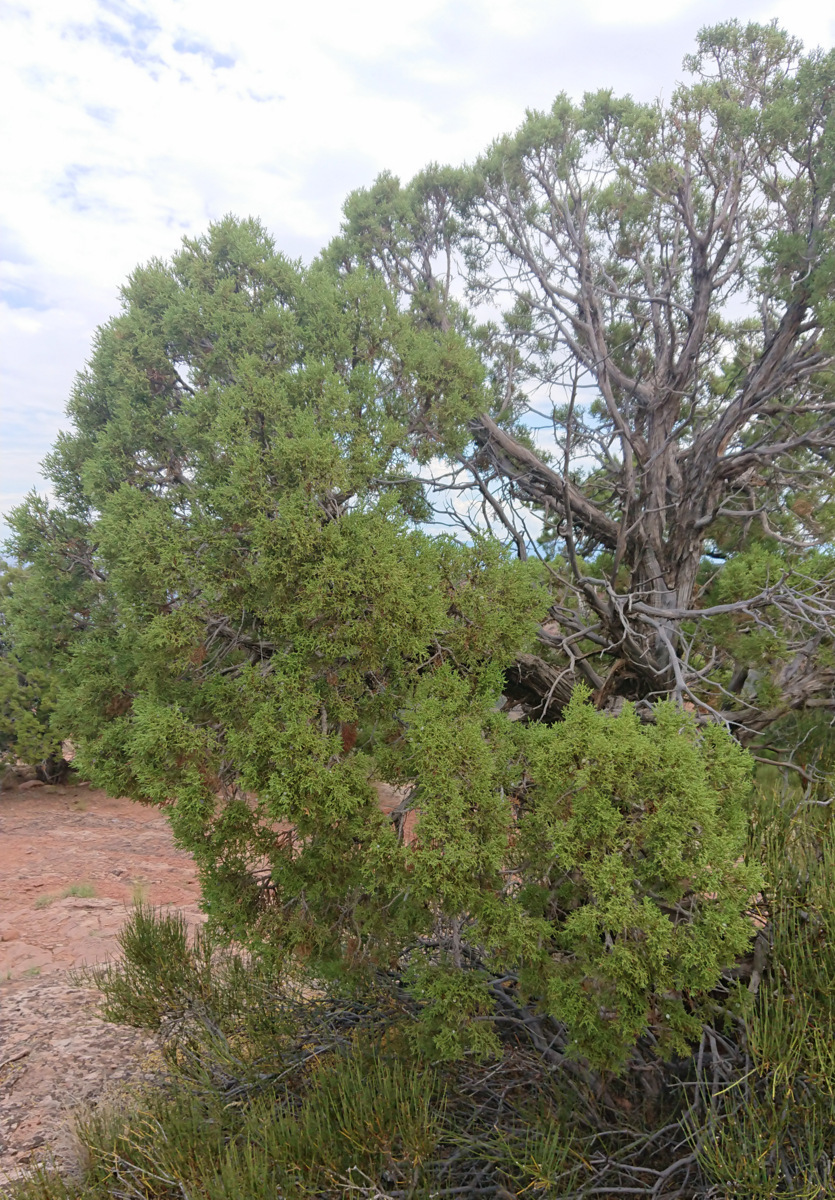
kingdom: Plantae
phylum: Tracheophyta
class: Pinopsida
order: Pinales
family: Cupressaceae
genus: Juniperus
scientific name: Juniperus osteosperma
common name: Utah juniper
